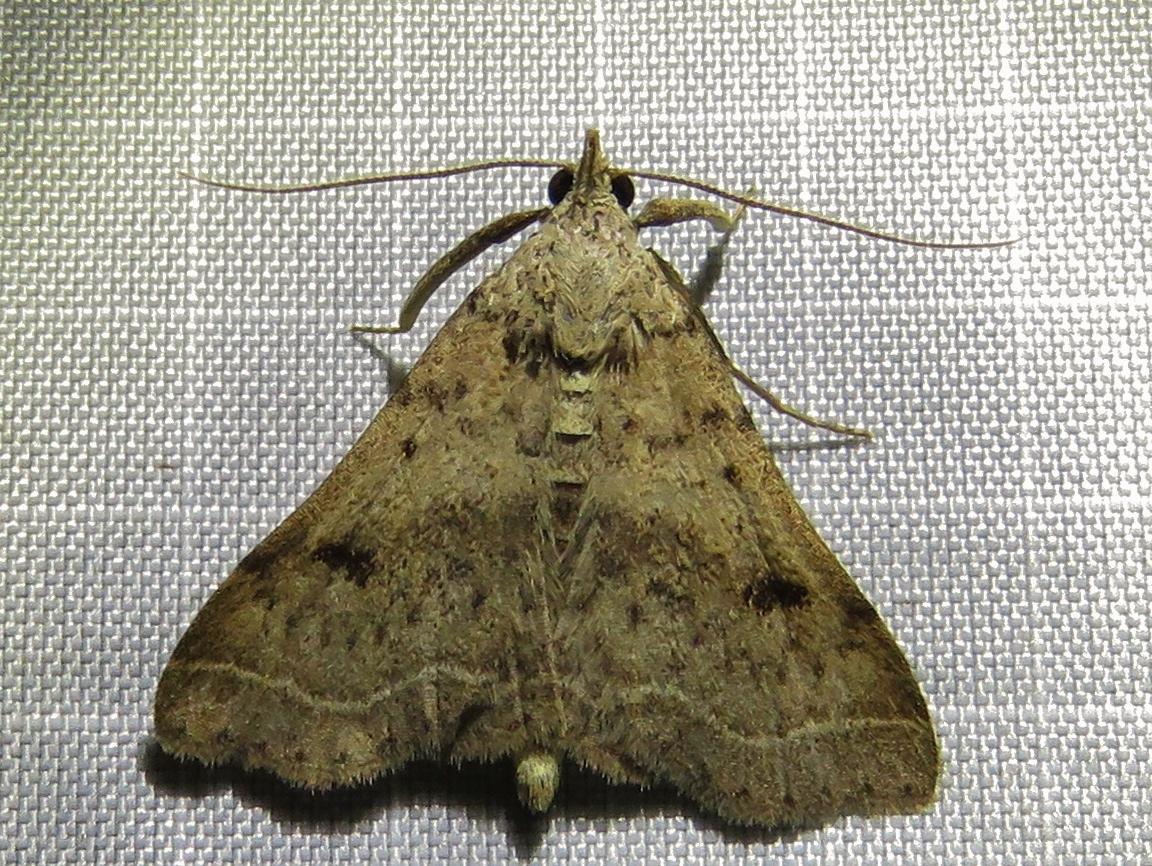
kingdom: Animalia
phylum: Arthropoda
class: Insecta
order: Lepidoptera
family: Erebidae
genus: Bleptina
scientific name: Bleptina caradrinalis
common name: Bent-winged owlet
